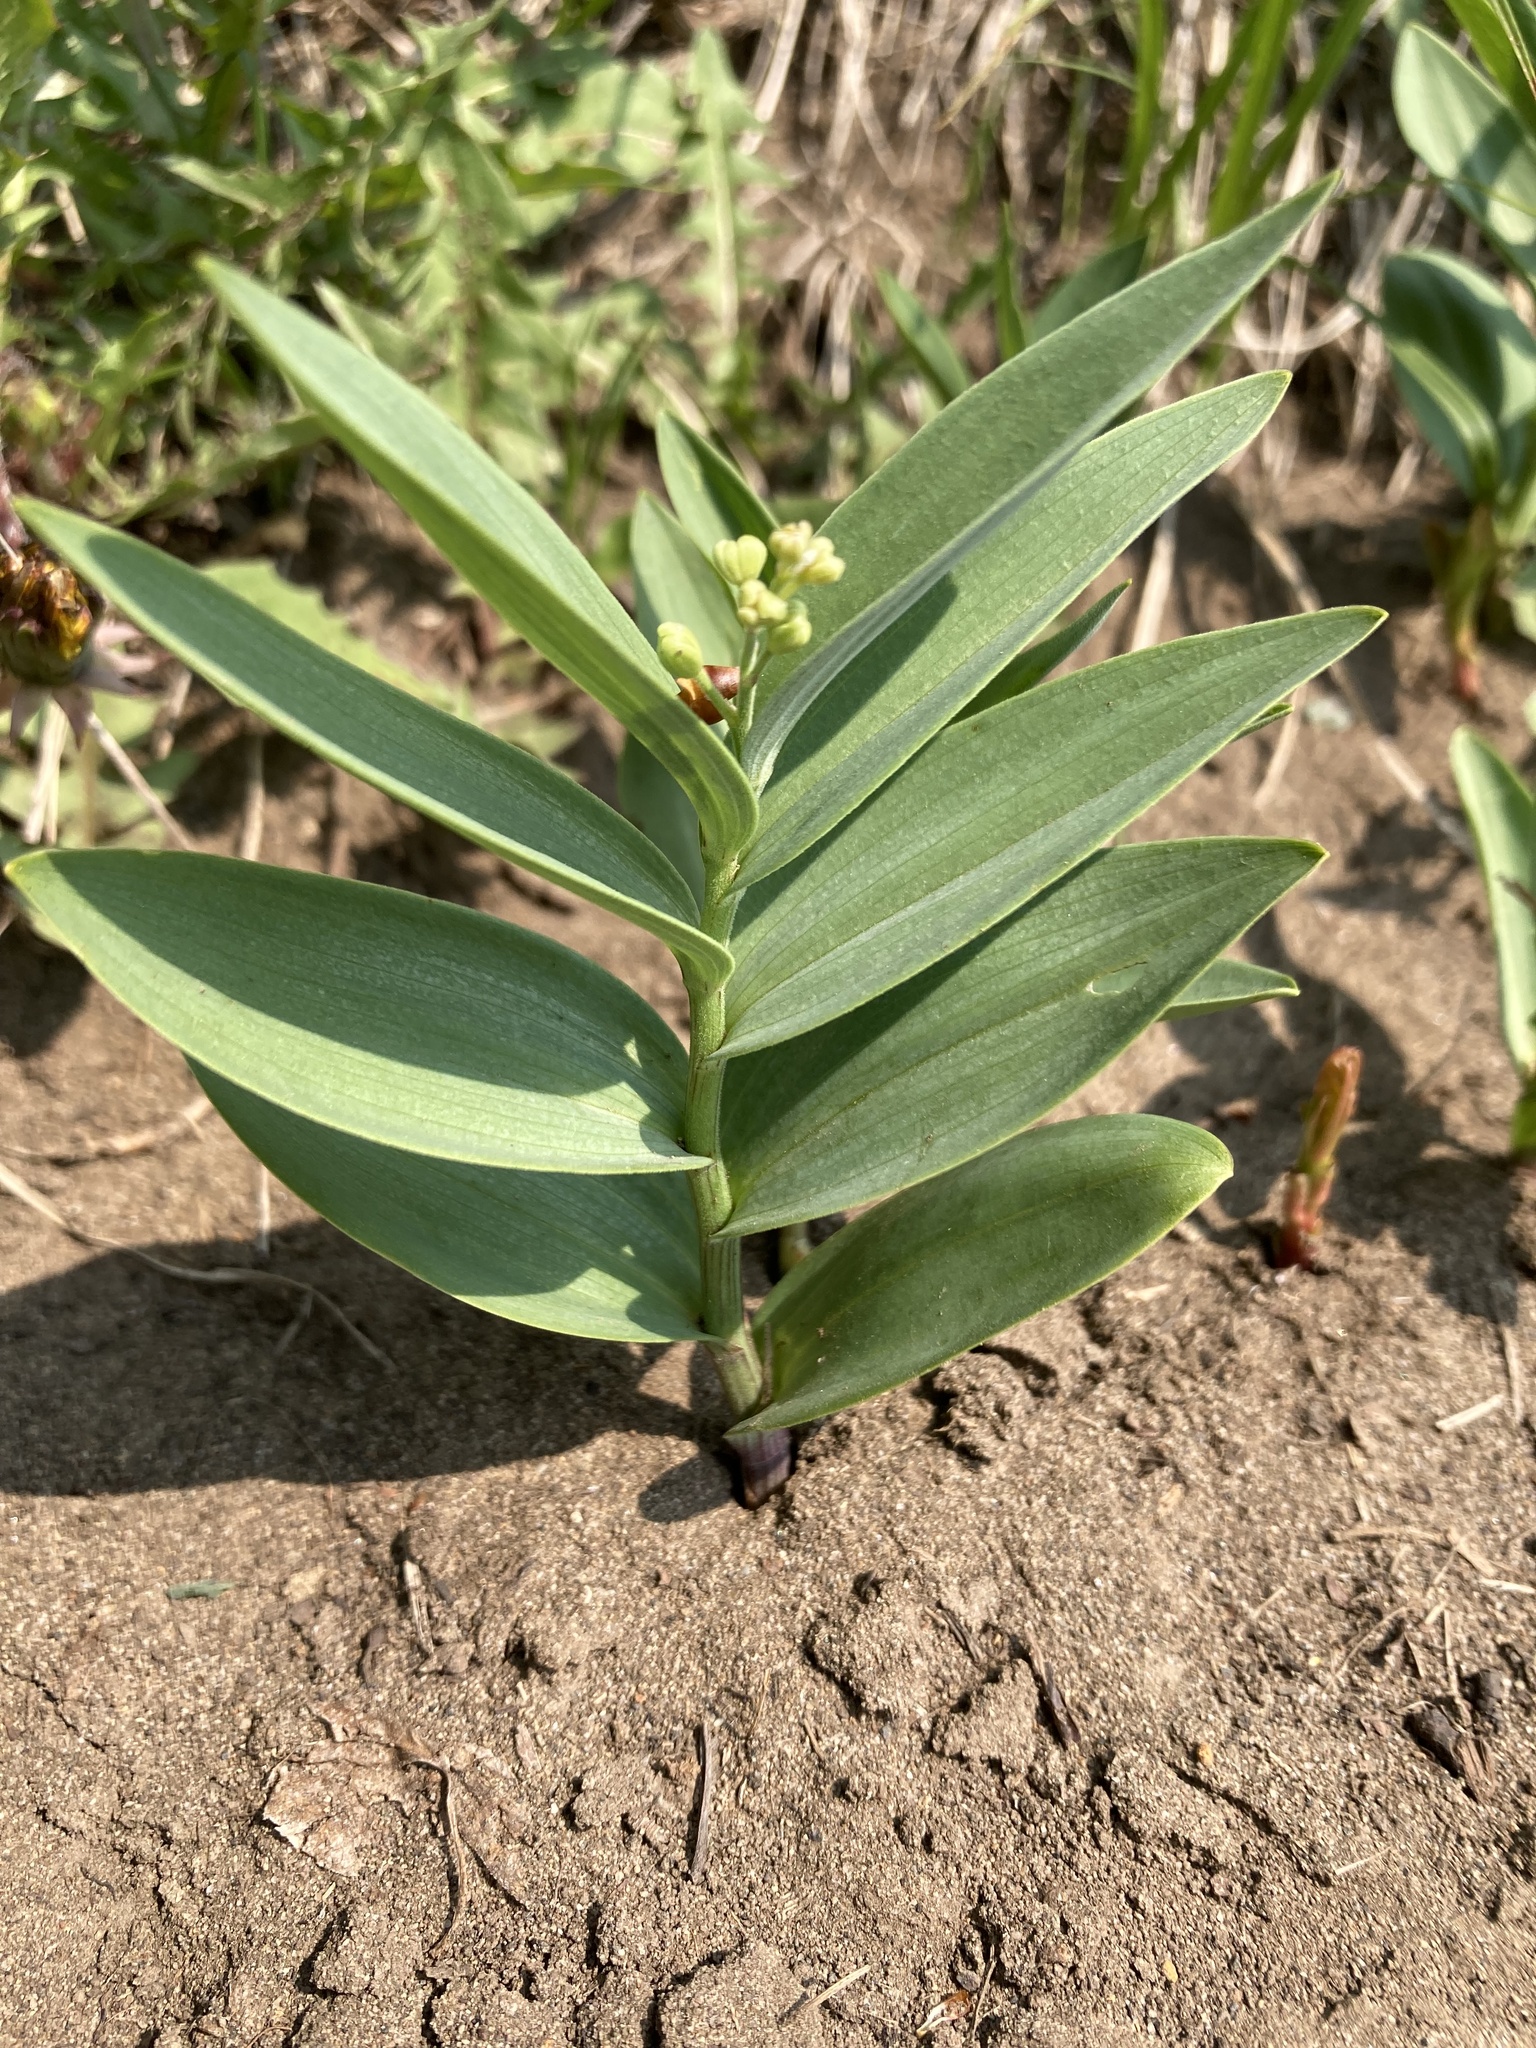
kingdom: Plantae
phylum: Tracheophyta
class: Liliopsida
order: Asparagales
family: Asparagaceae
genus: Maianthemum
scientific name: Maianthemum stellatum
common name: Little false solomon's seal
